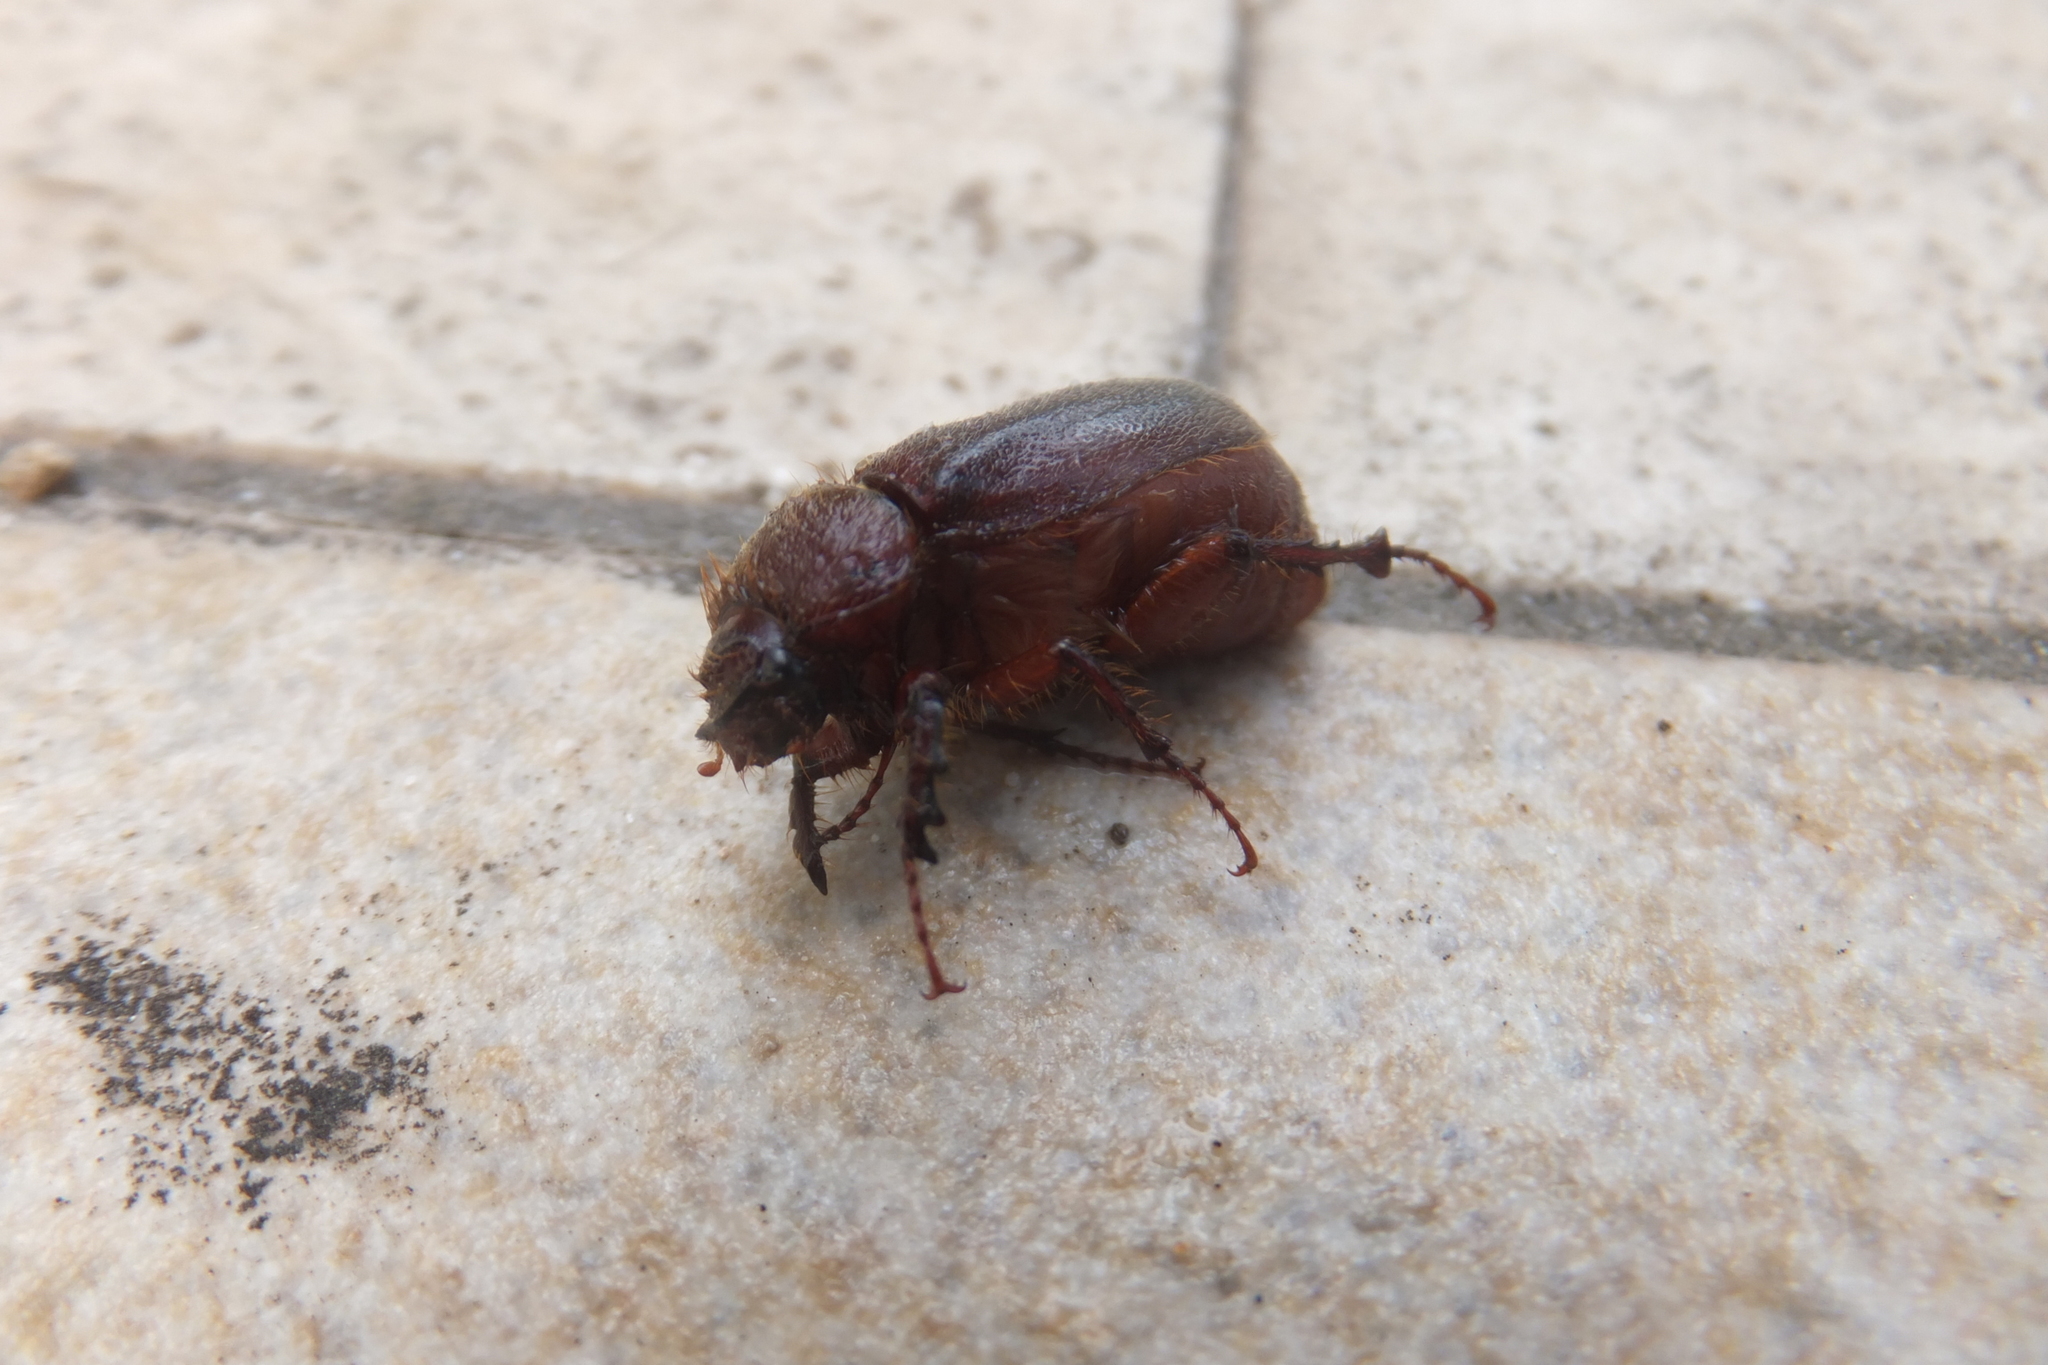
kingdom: Animalia
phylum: Arthropoda
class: Insecta
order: Coleoptera
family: Scarabaeidae
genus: Aplidia
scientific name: Aplidia
